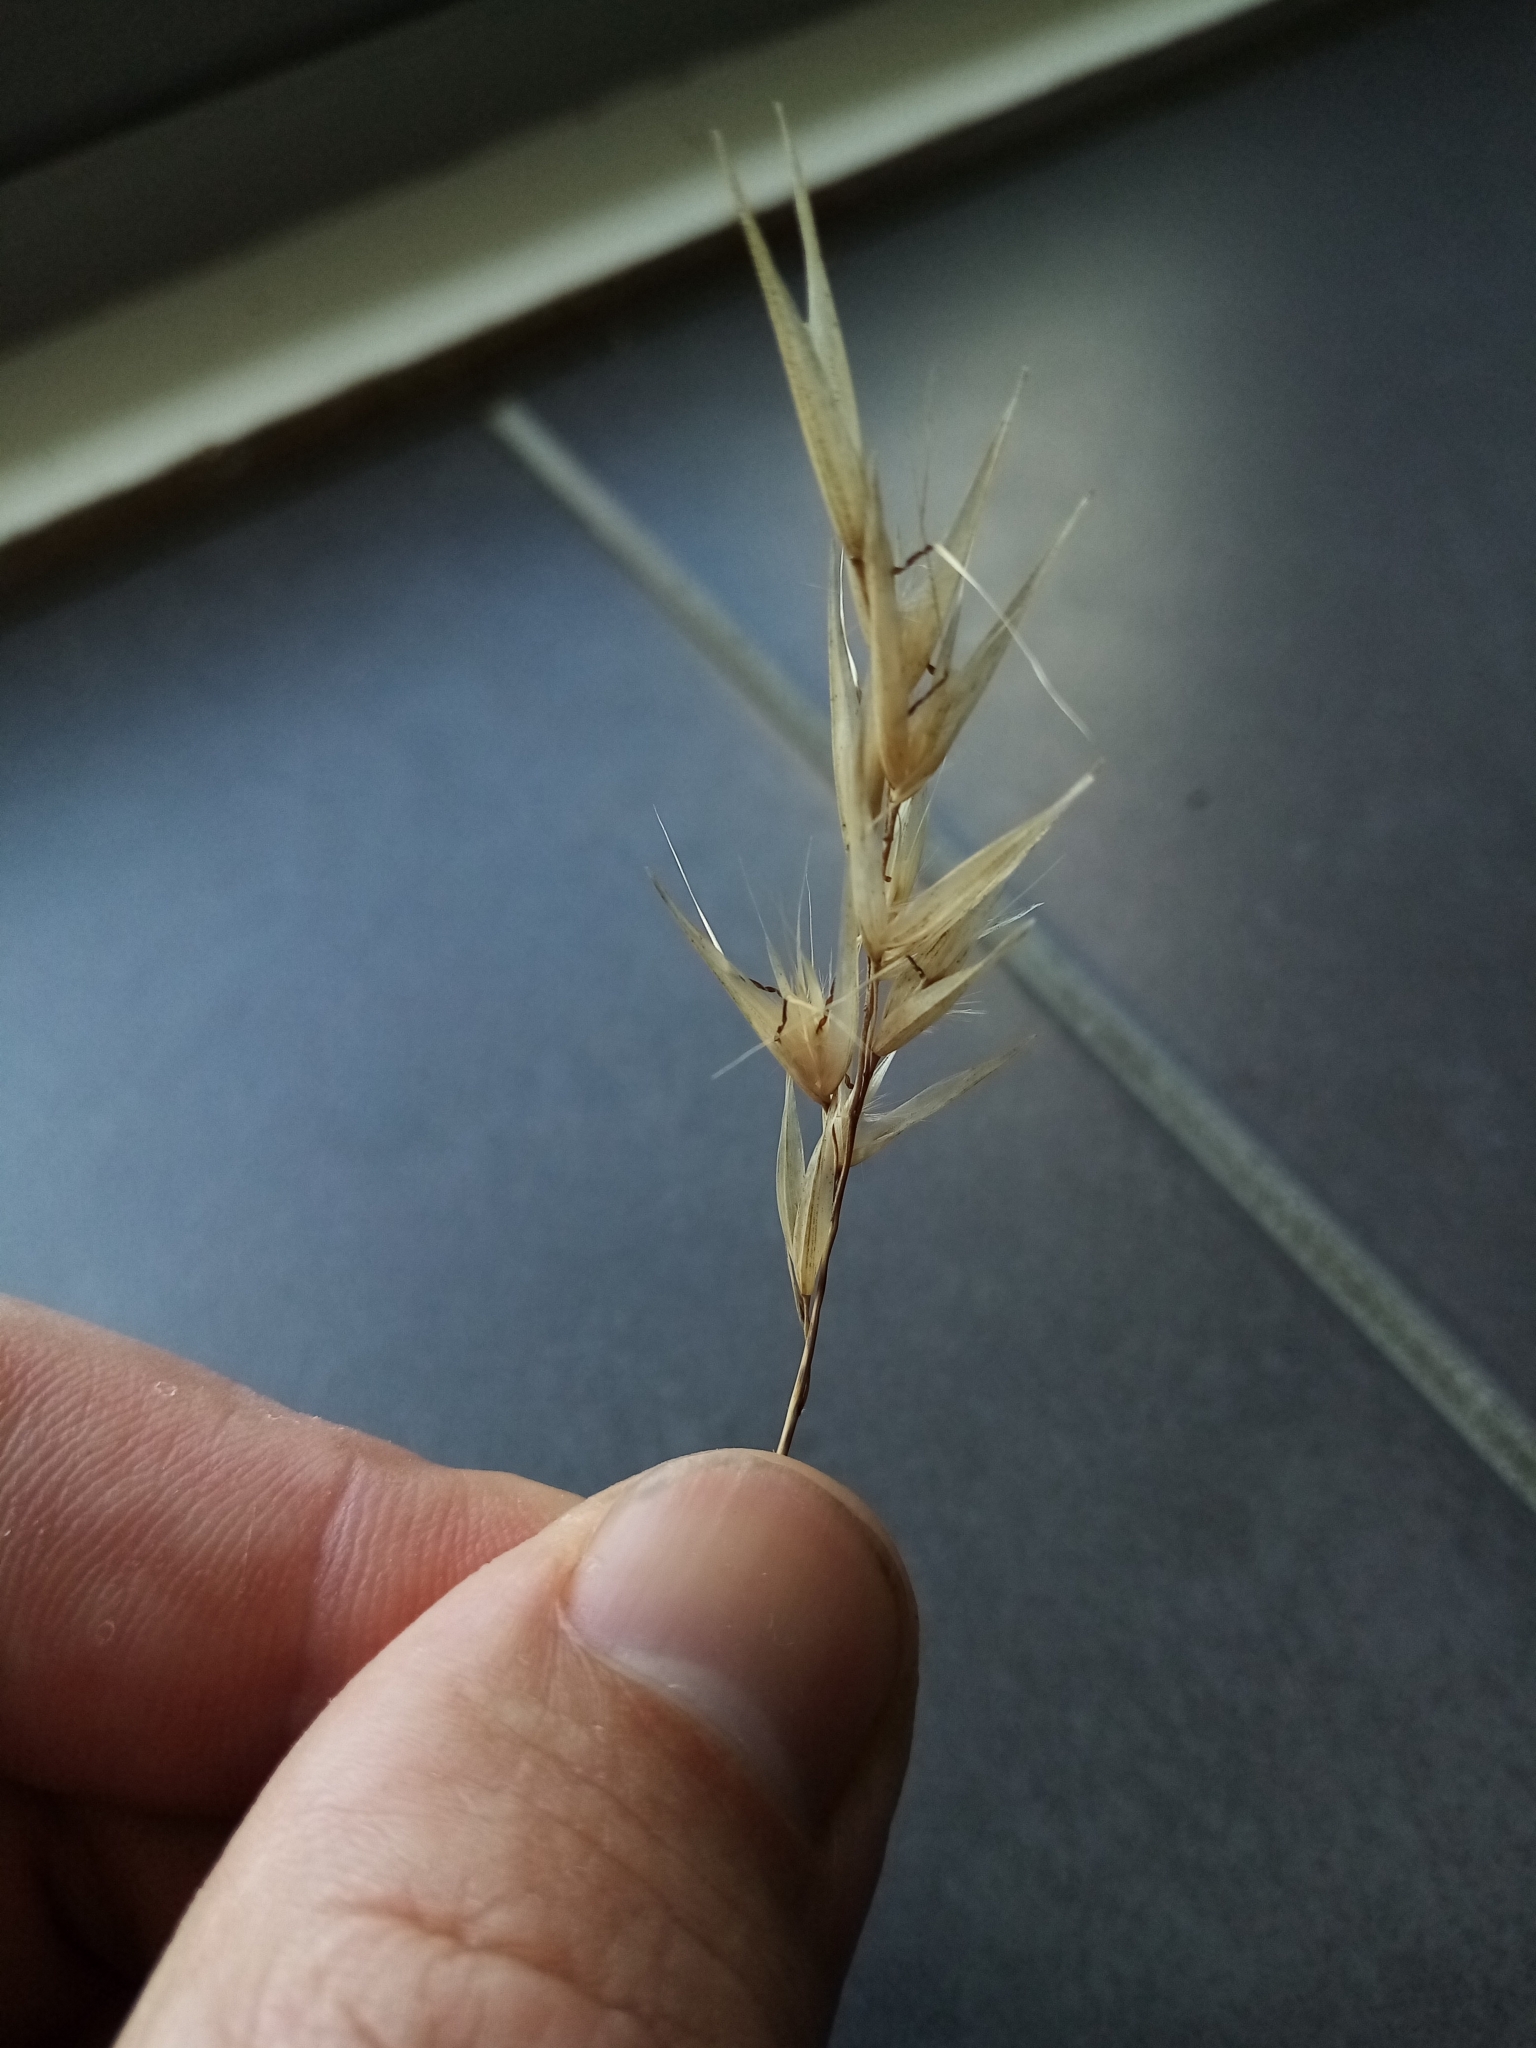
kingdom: Plantae
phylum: Tracheophyta
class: Liliopsida
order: Poales
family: Poaceae
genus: Rytidosperma
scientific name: Rytidosperma caespitosum
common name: Tufted wallaby grass
